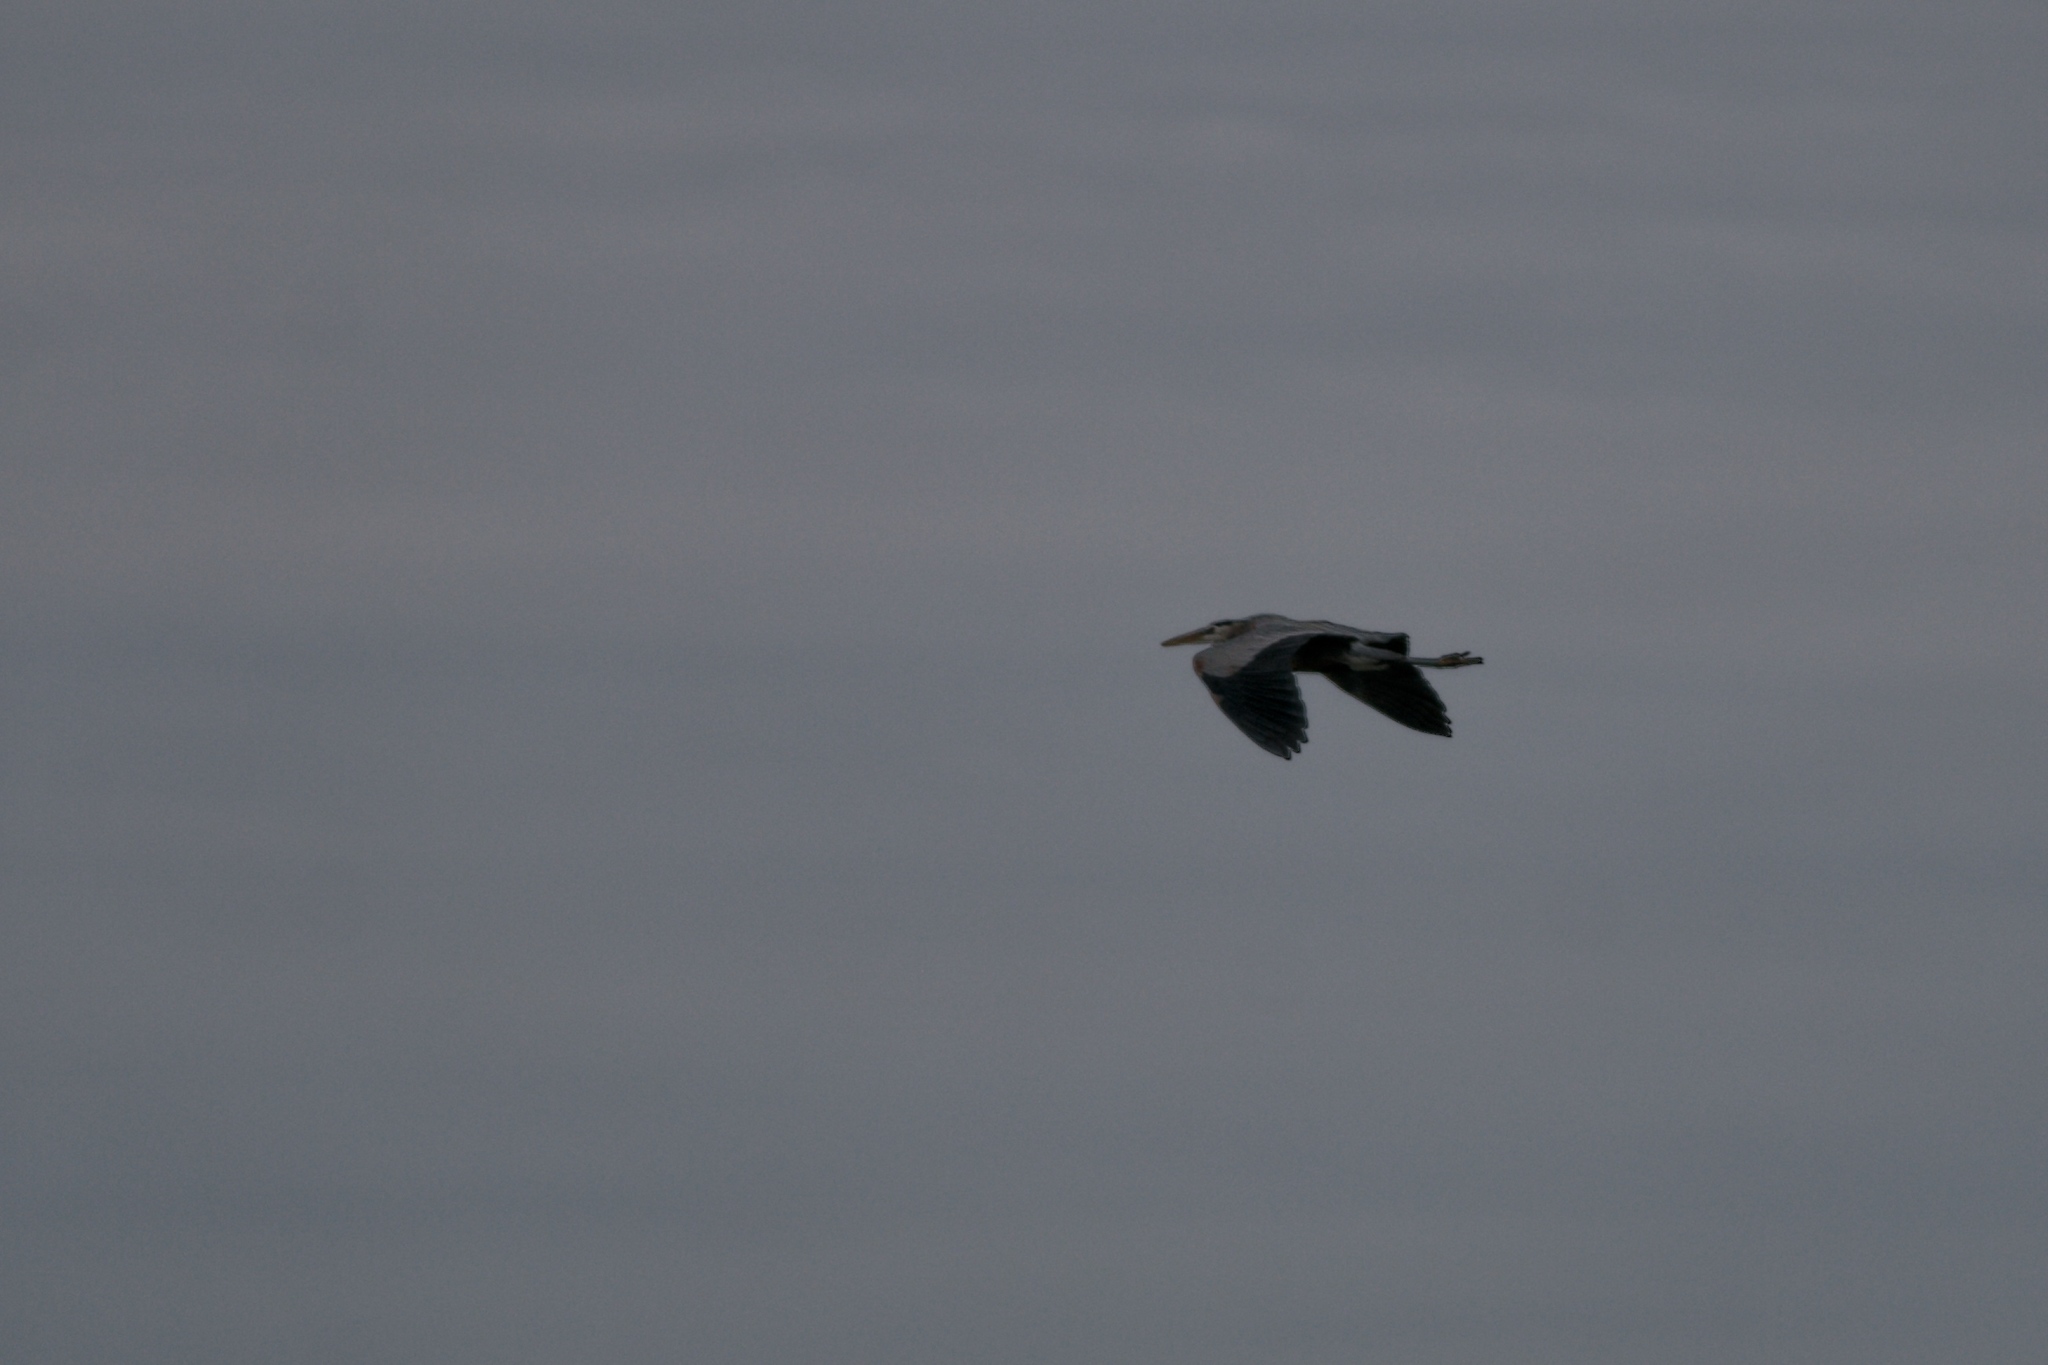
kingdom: Animalia
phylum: Chordata
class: Aves
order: Pelecaniformes
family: Ardeidae
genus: Ardea
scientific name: Ardea herodias
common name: Great blue heron
